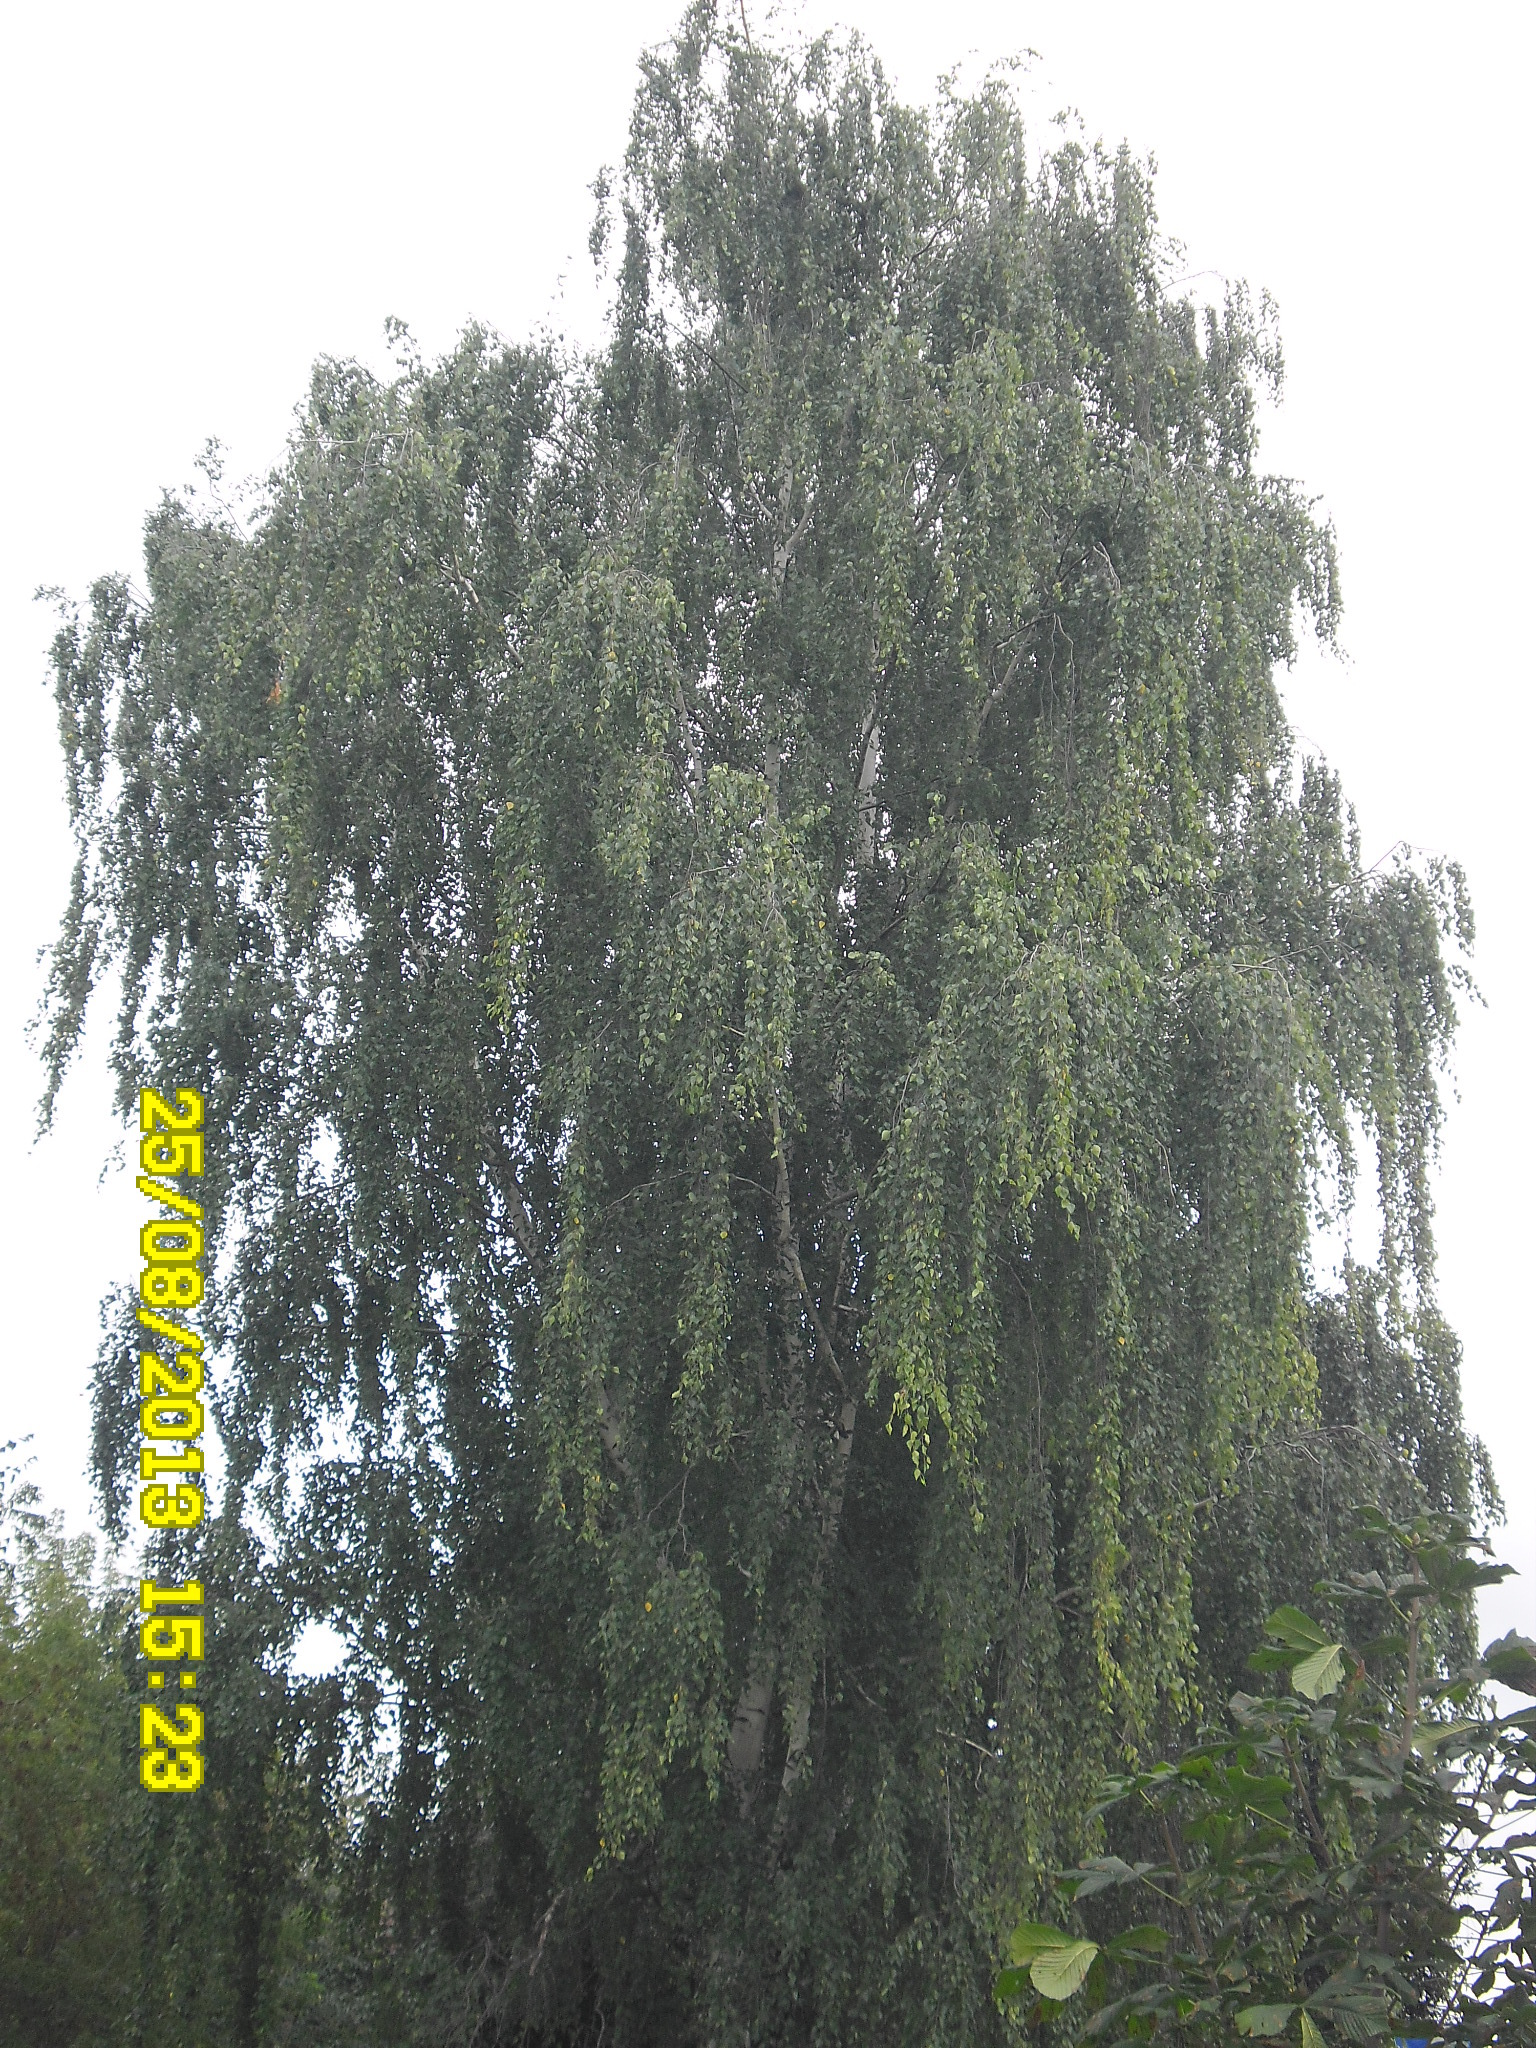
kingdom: Plantae
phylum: Tracheophyta
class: Magnoliopsida
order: Fagales
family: Betulaceae
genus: Betula
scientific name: Betula pendula
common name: Silver birch
